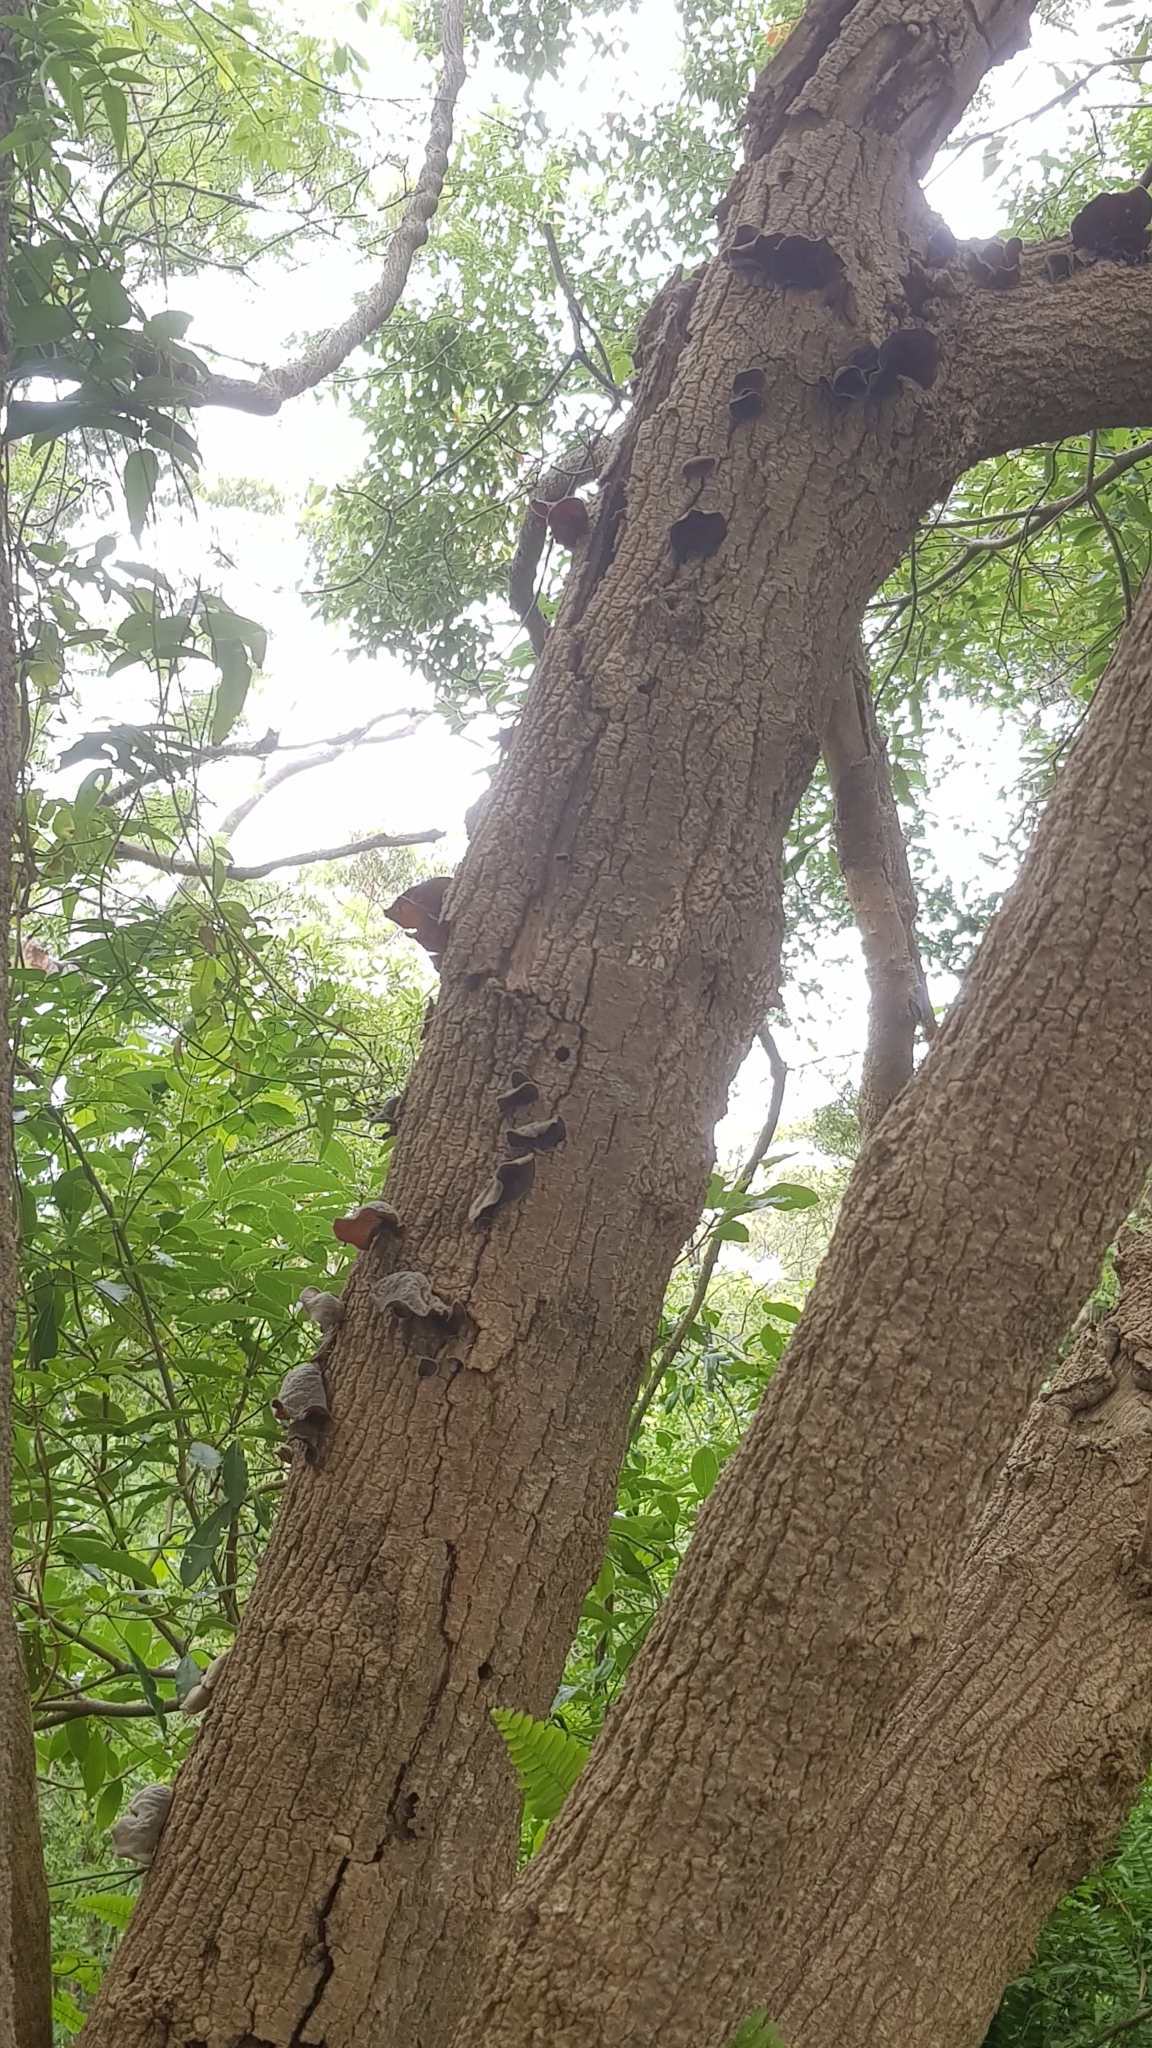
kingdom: Fungi
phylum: Basidiomycota
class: Agaricomycetes
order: Auriculariales
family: Auriculariaceae
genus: Auricularia
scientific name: Auricularia cornea
